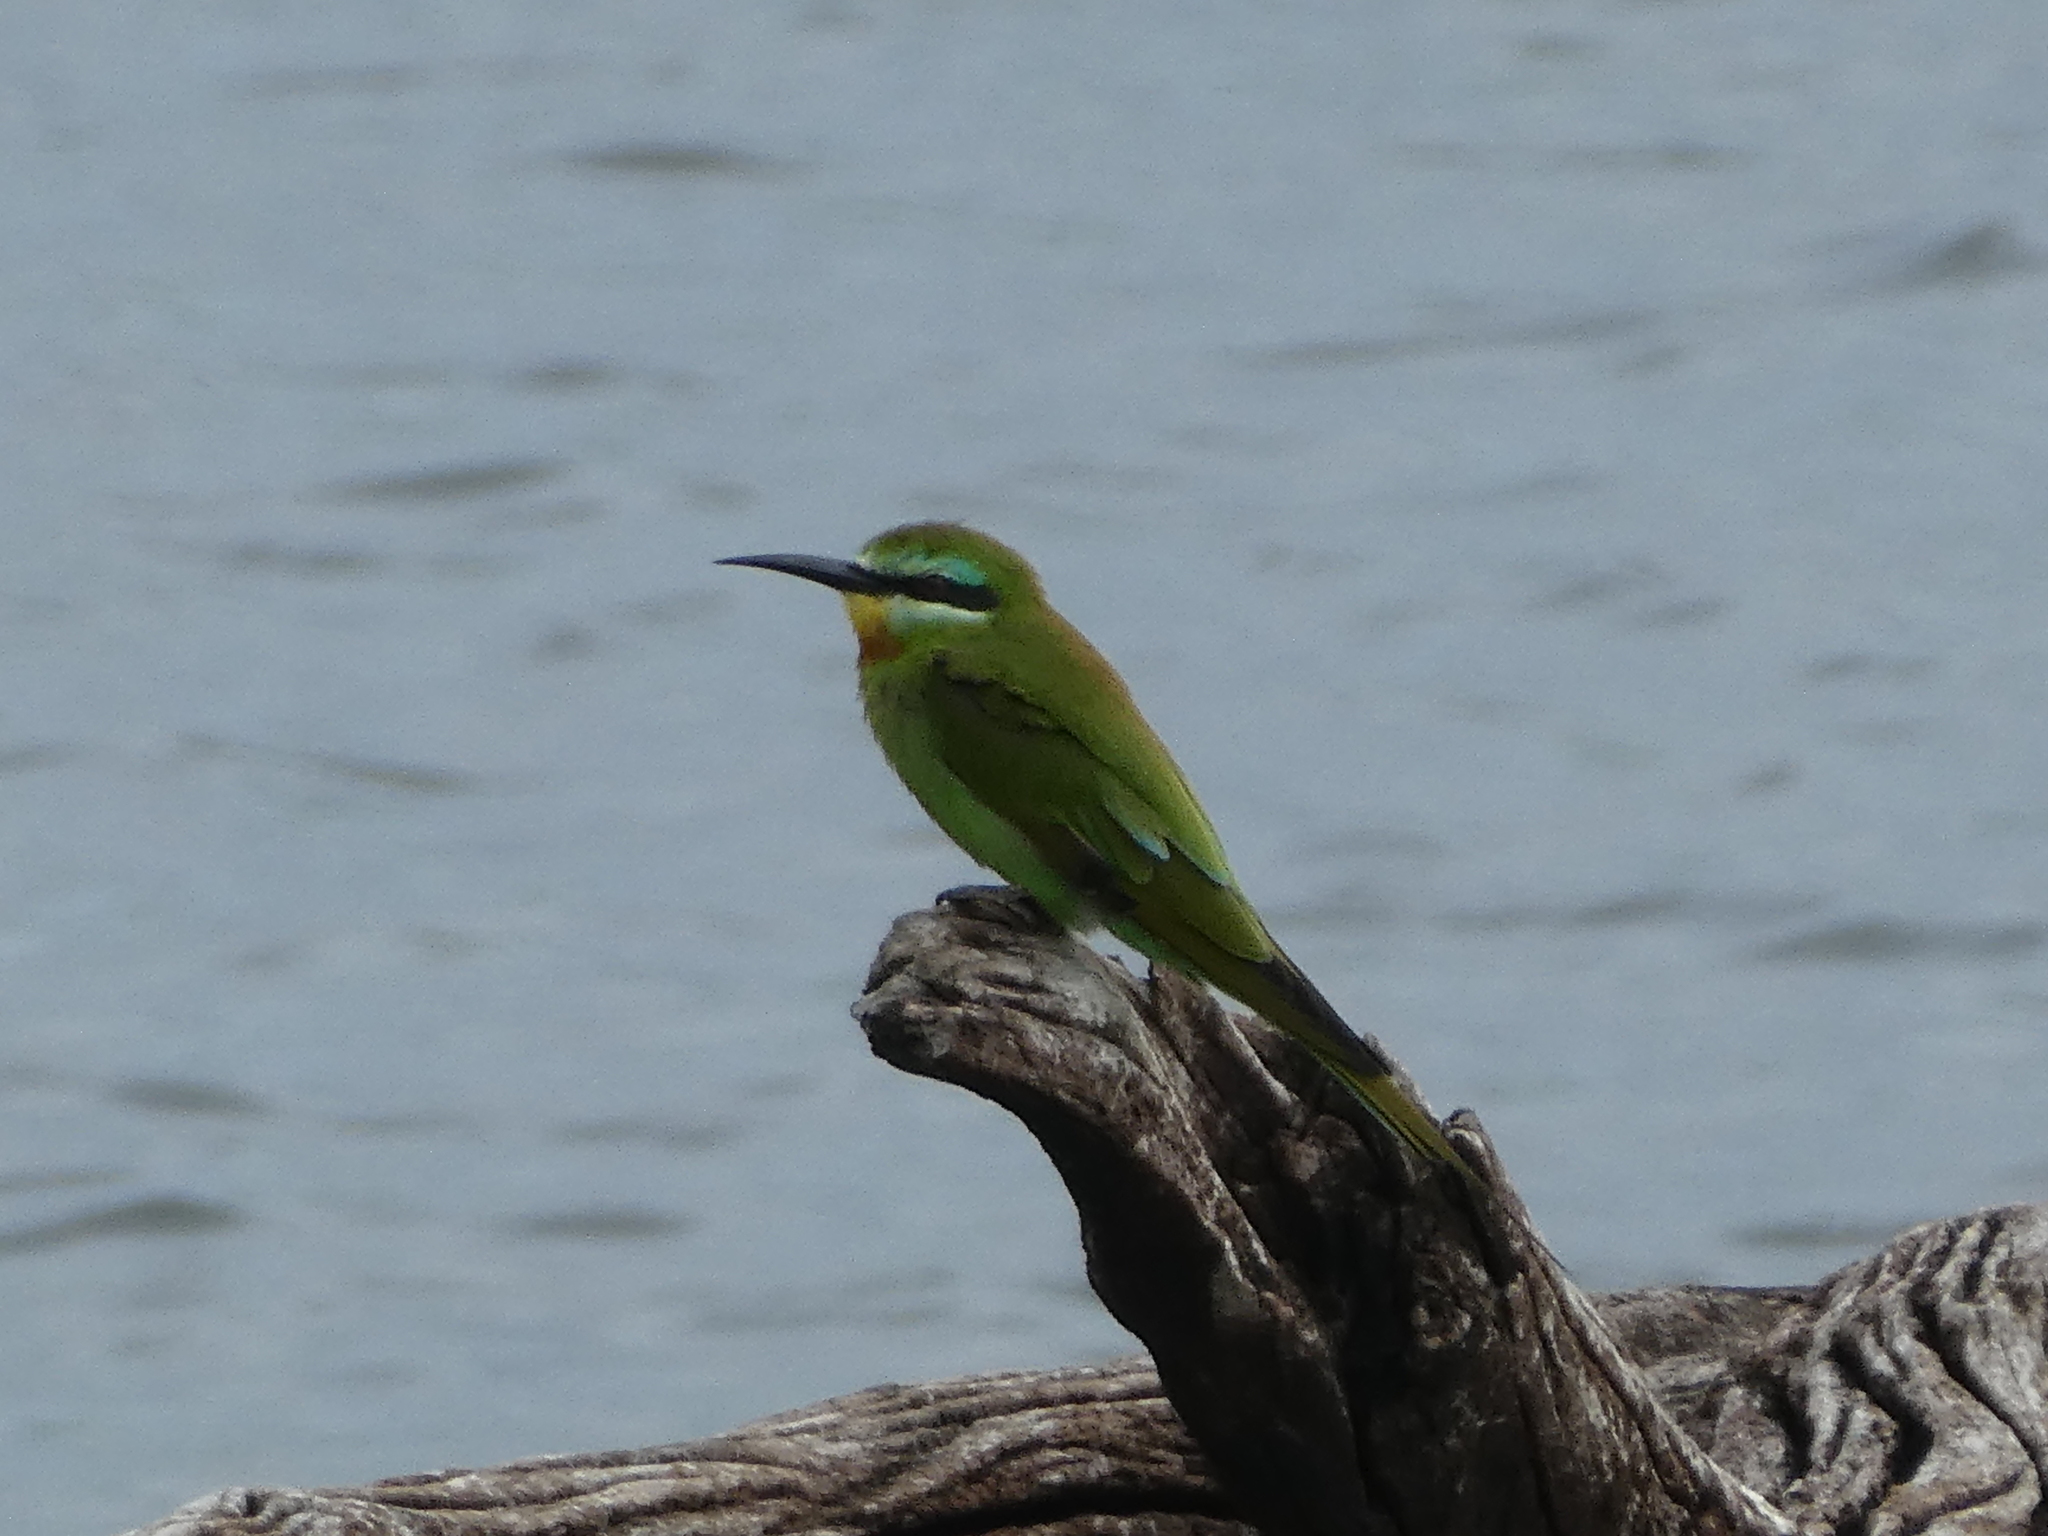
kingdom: Animalia
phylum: Chordata
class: Aves
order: Coraciiformes
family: Meropidae
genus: Merops
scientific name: Merops persicus
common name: Blue-cheeked bee-eater
